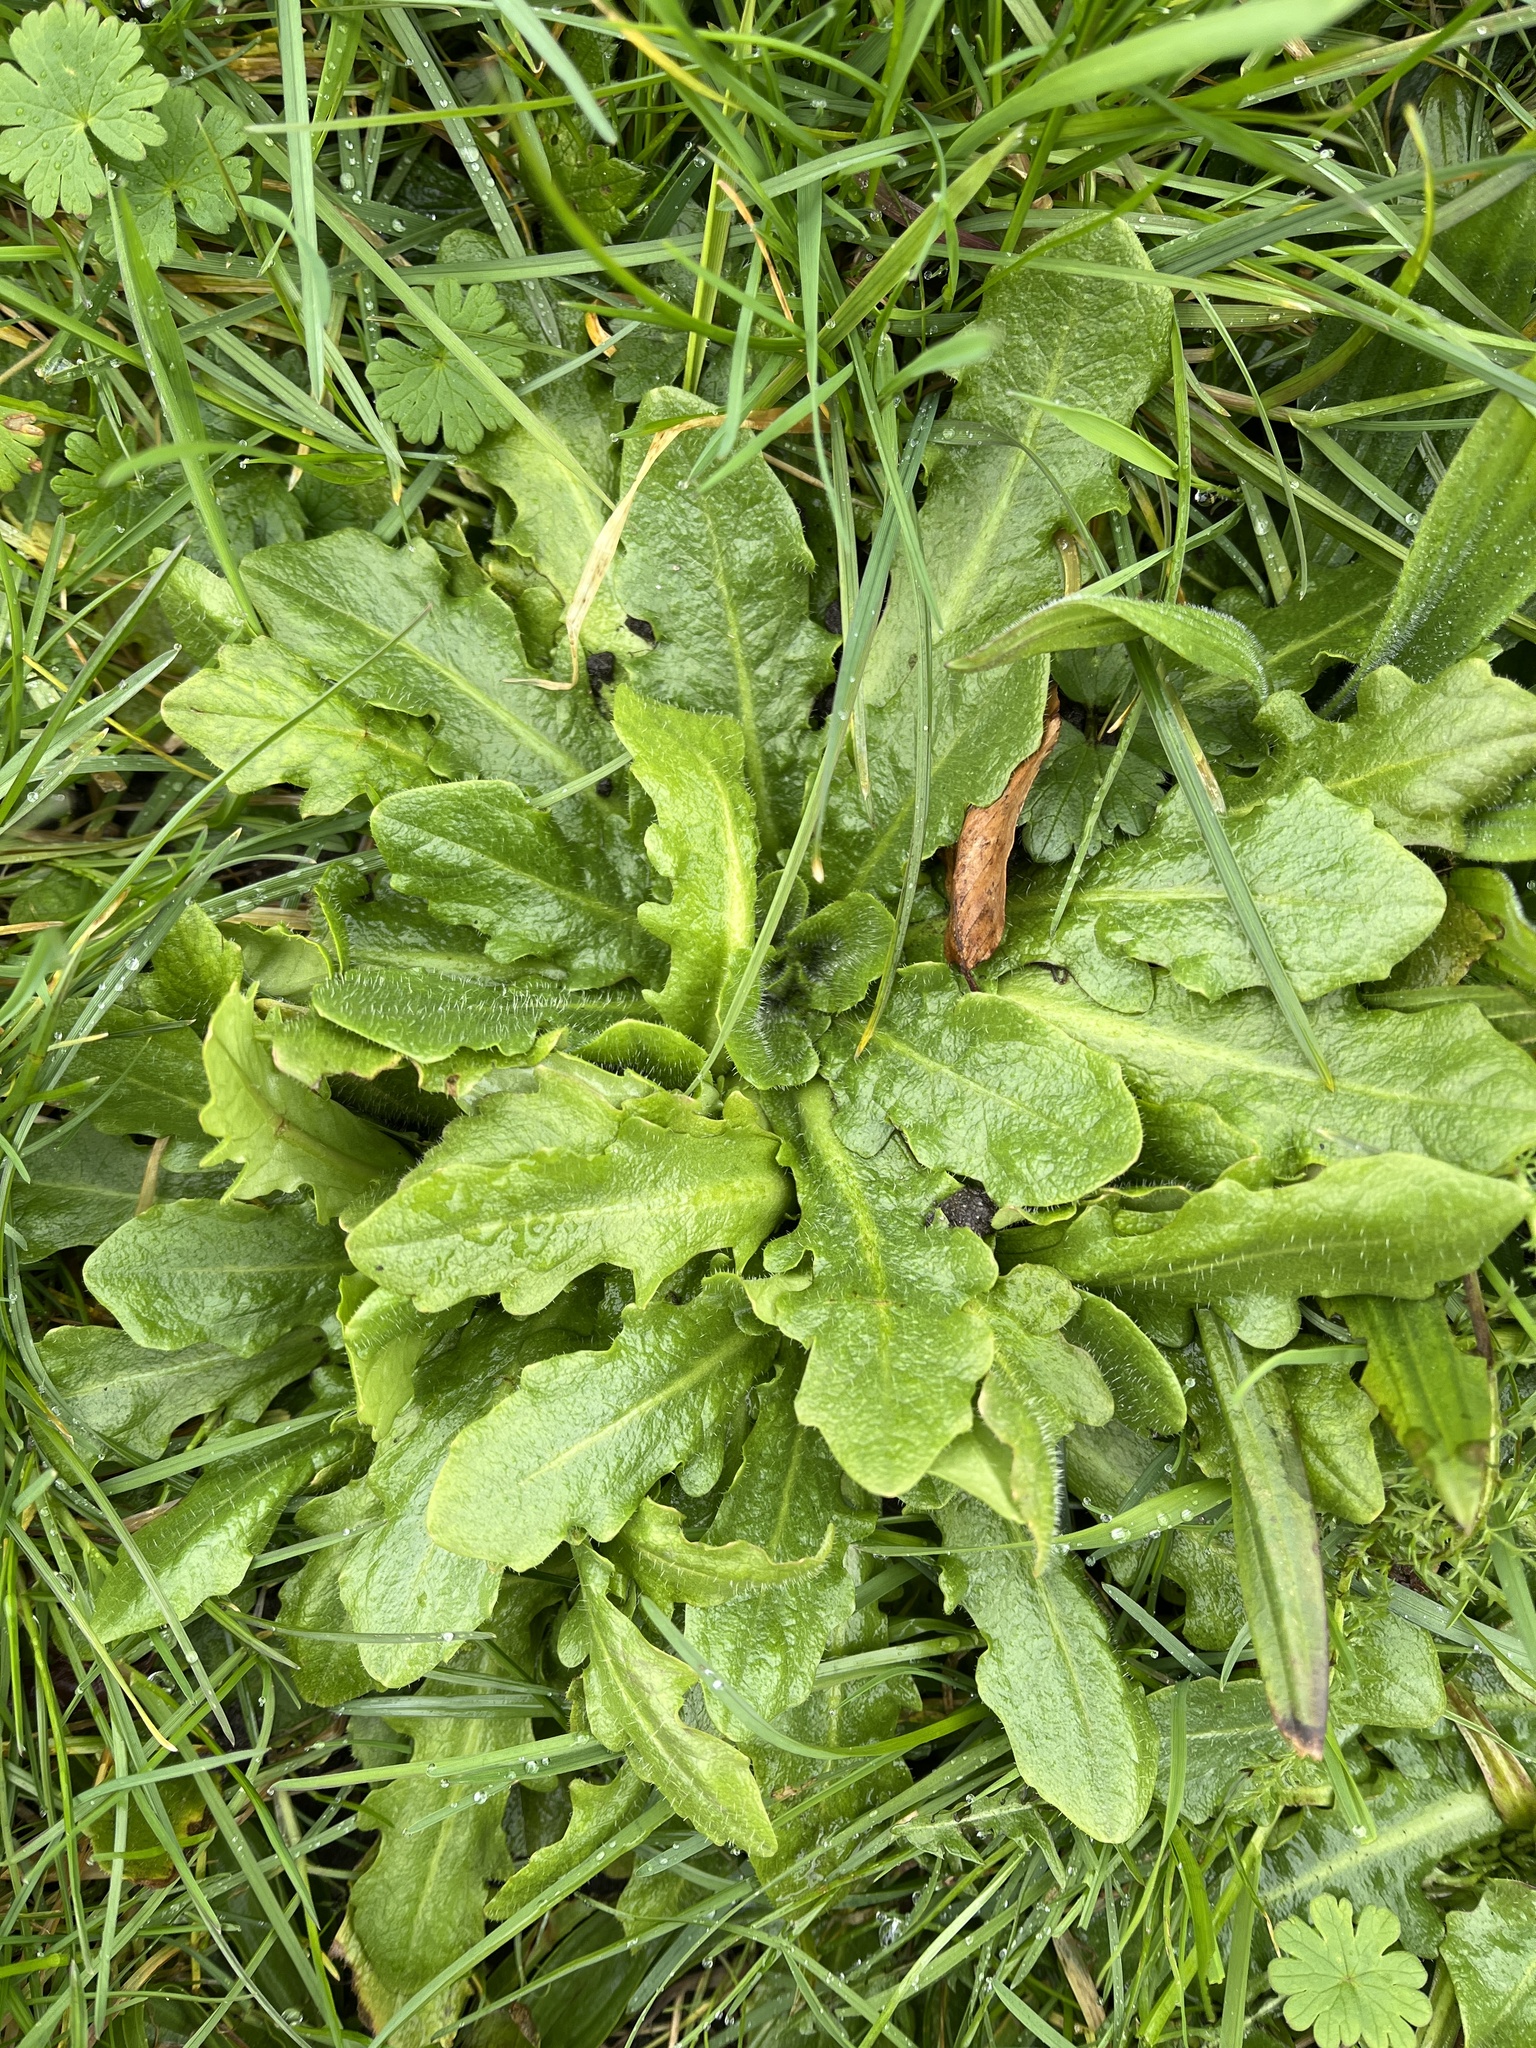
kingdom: Plantae
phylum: Tracheophyta
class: Magnoliopsida
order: Asterales
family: Asteraceae
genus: Hypochaeris
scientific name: Hypochaeris radicata
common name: Flatweed
